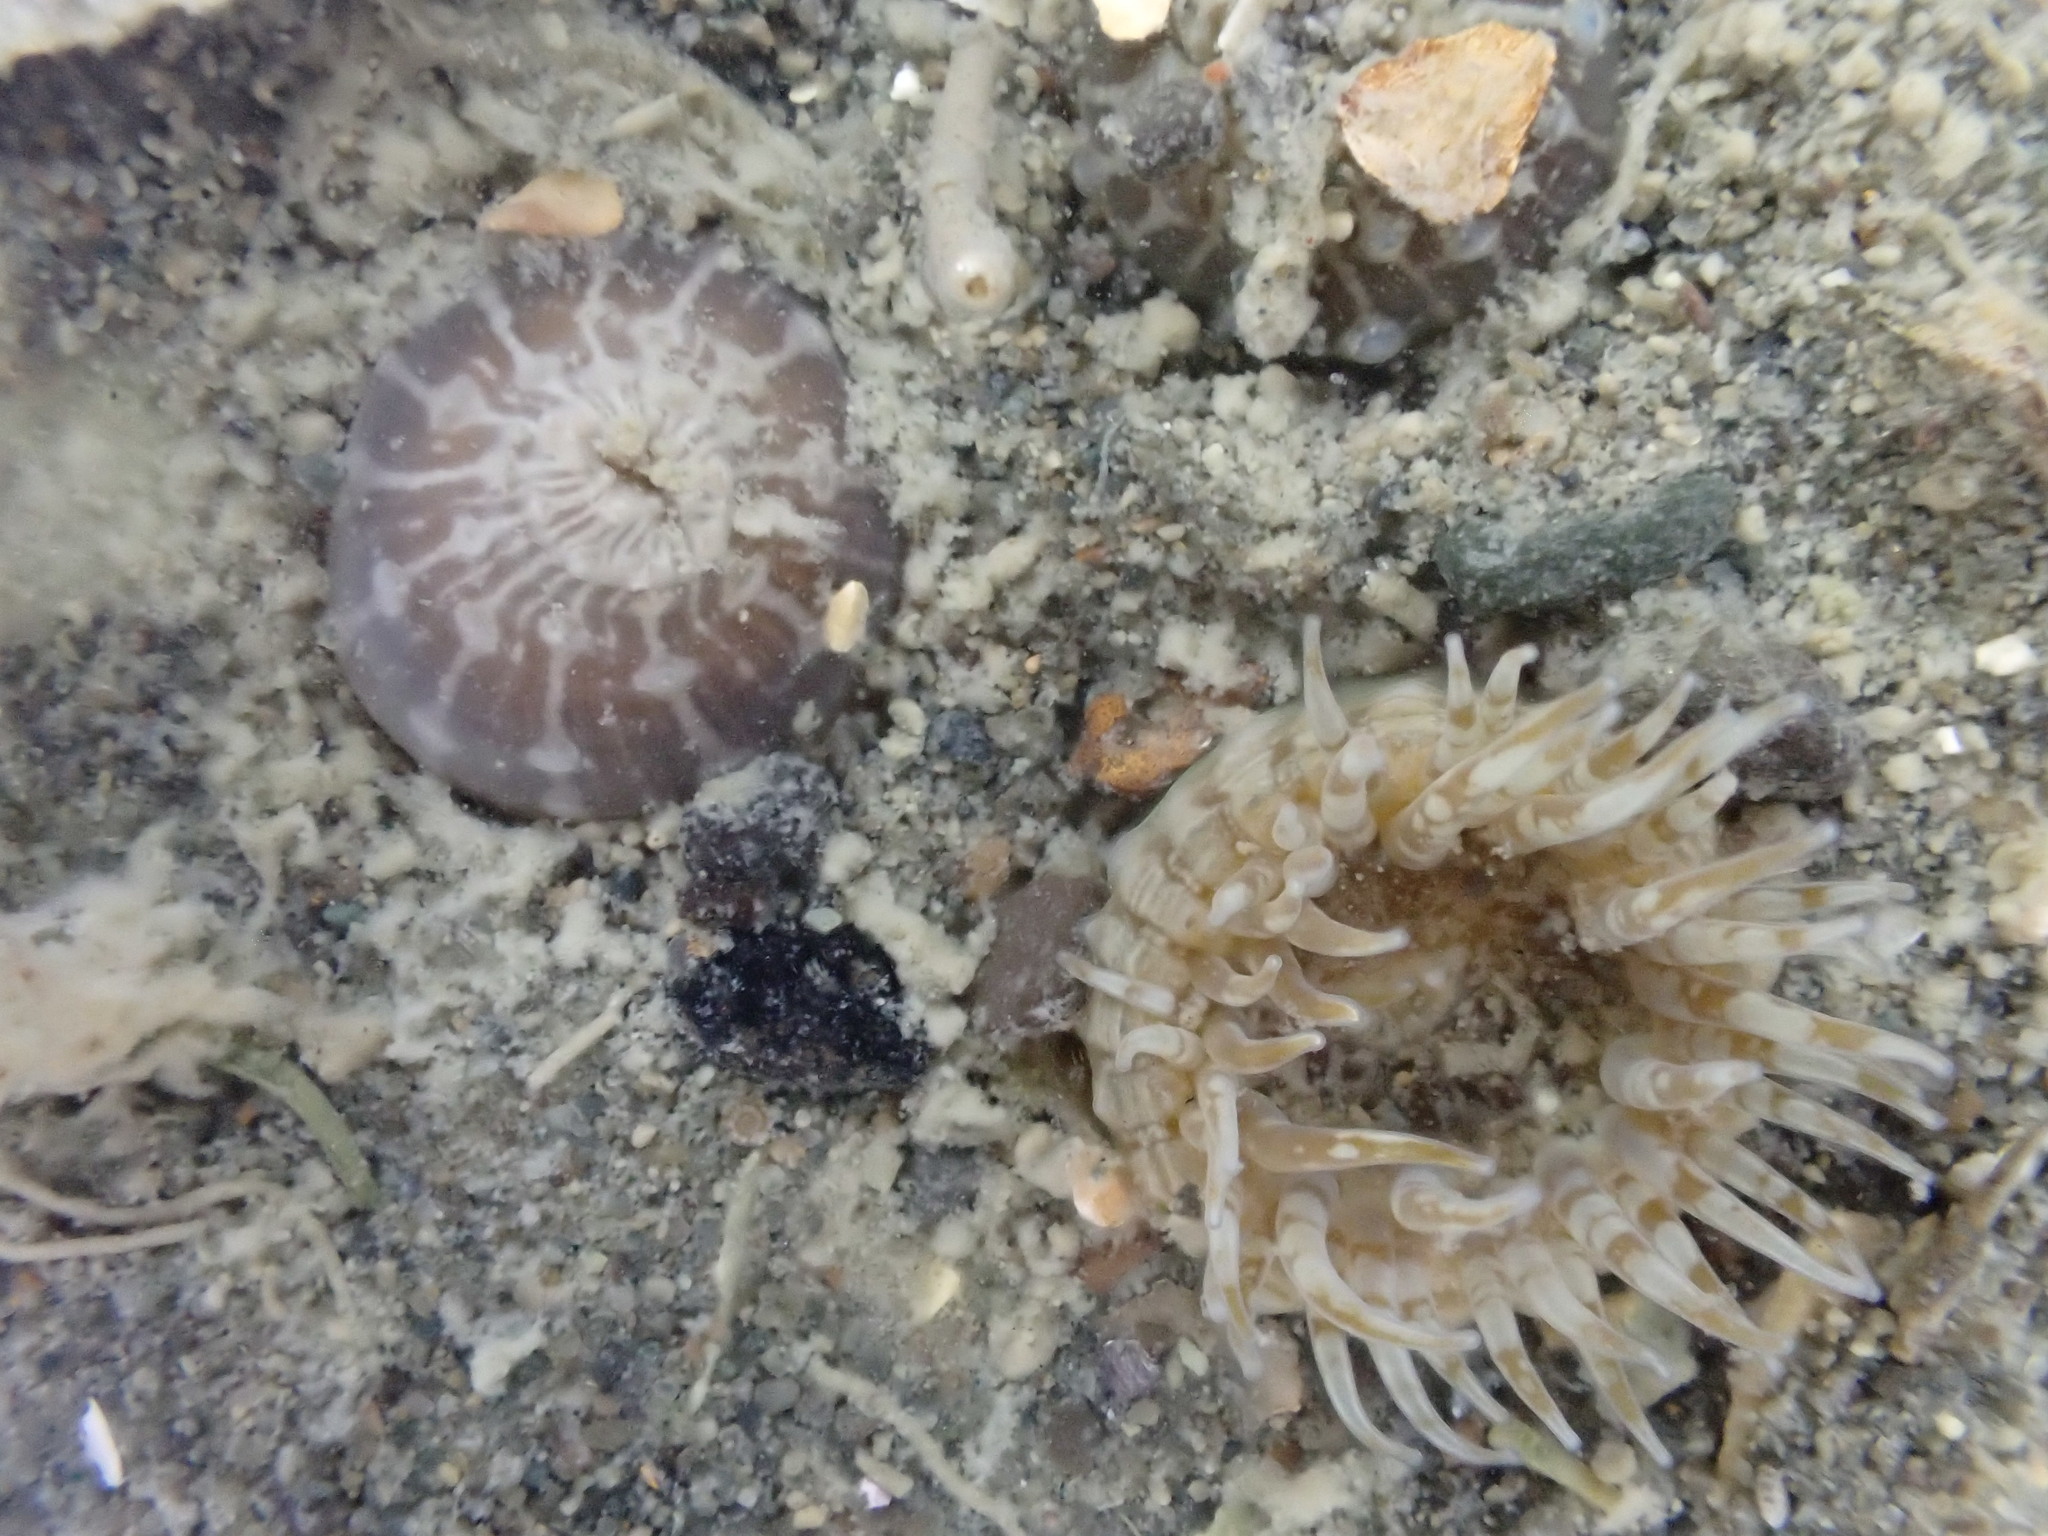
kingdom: Animalia
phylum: Cnidaria
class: Anthozoa
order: Actiniaria
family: Actiniidae
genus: Anthopleura
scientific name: Anthopleura hermaphroditica
